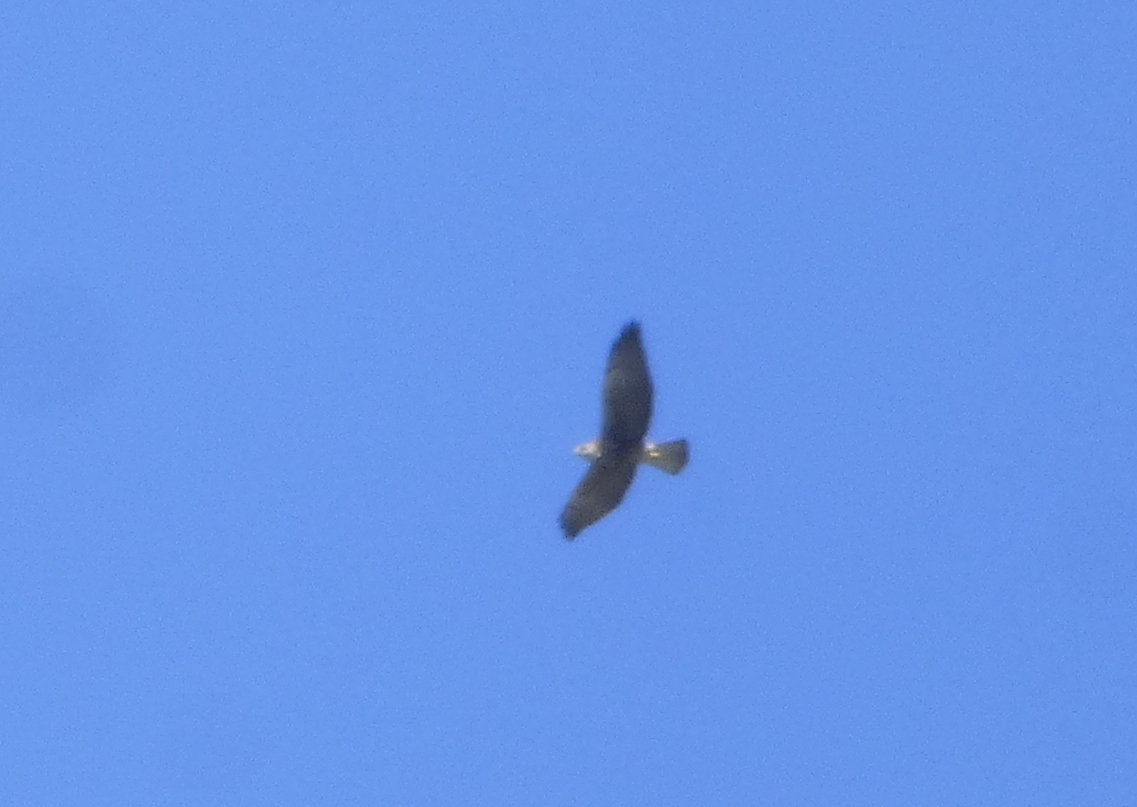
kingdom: Animalia
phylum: Chordata
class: Aves
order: Accipitriformes
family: Accipitridae
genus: Buteo
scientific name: Buteo swainsoni
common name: Swainson's hawk
